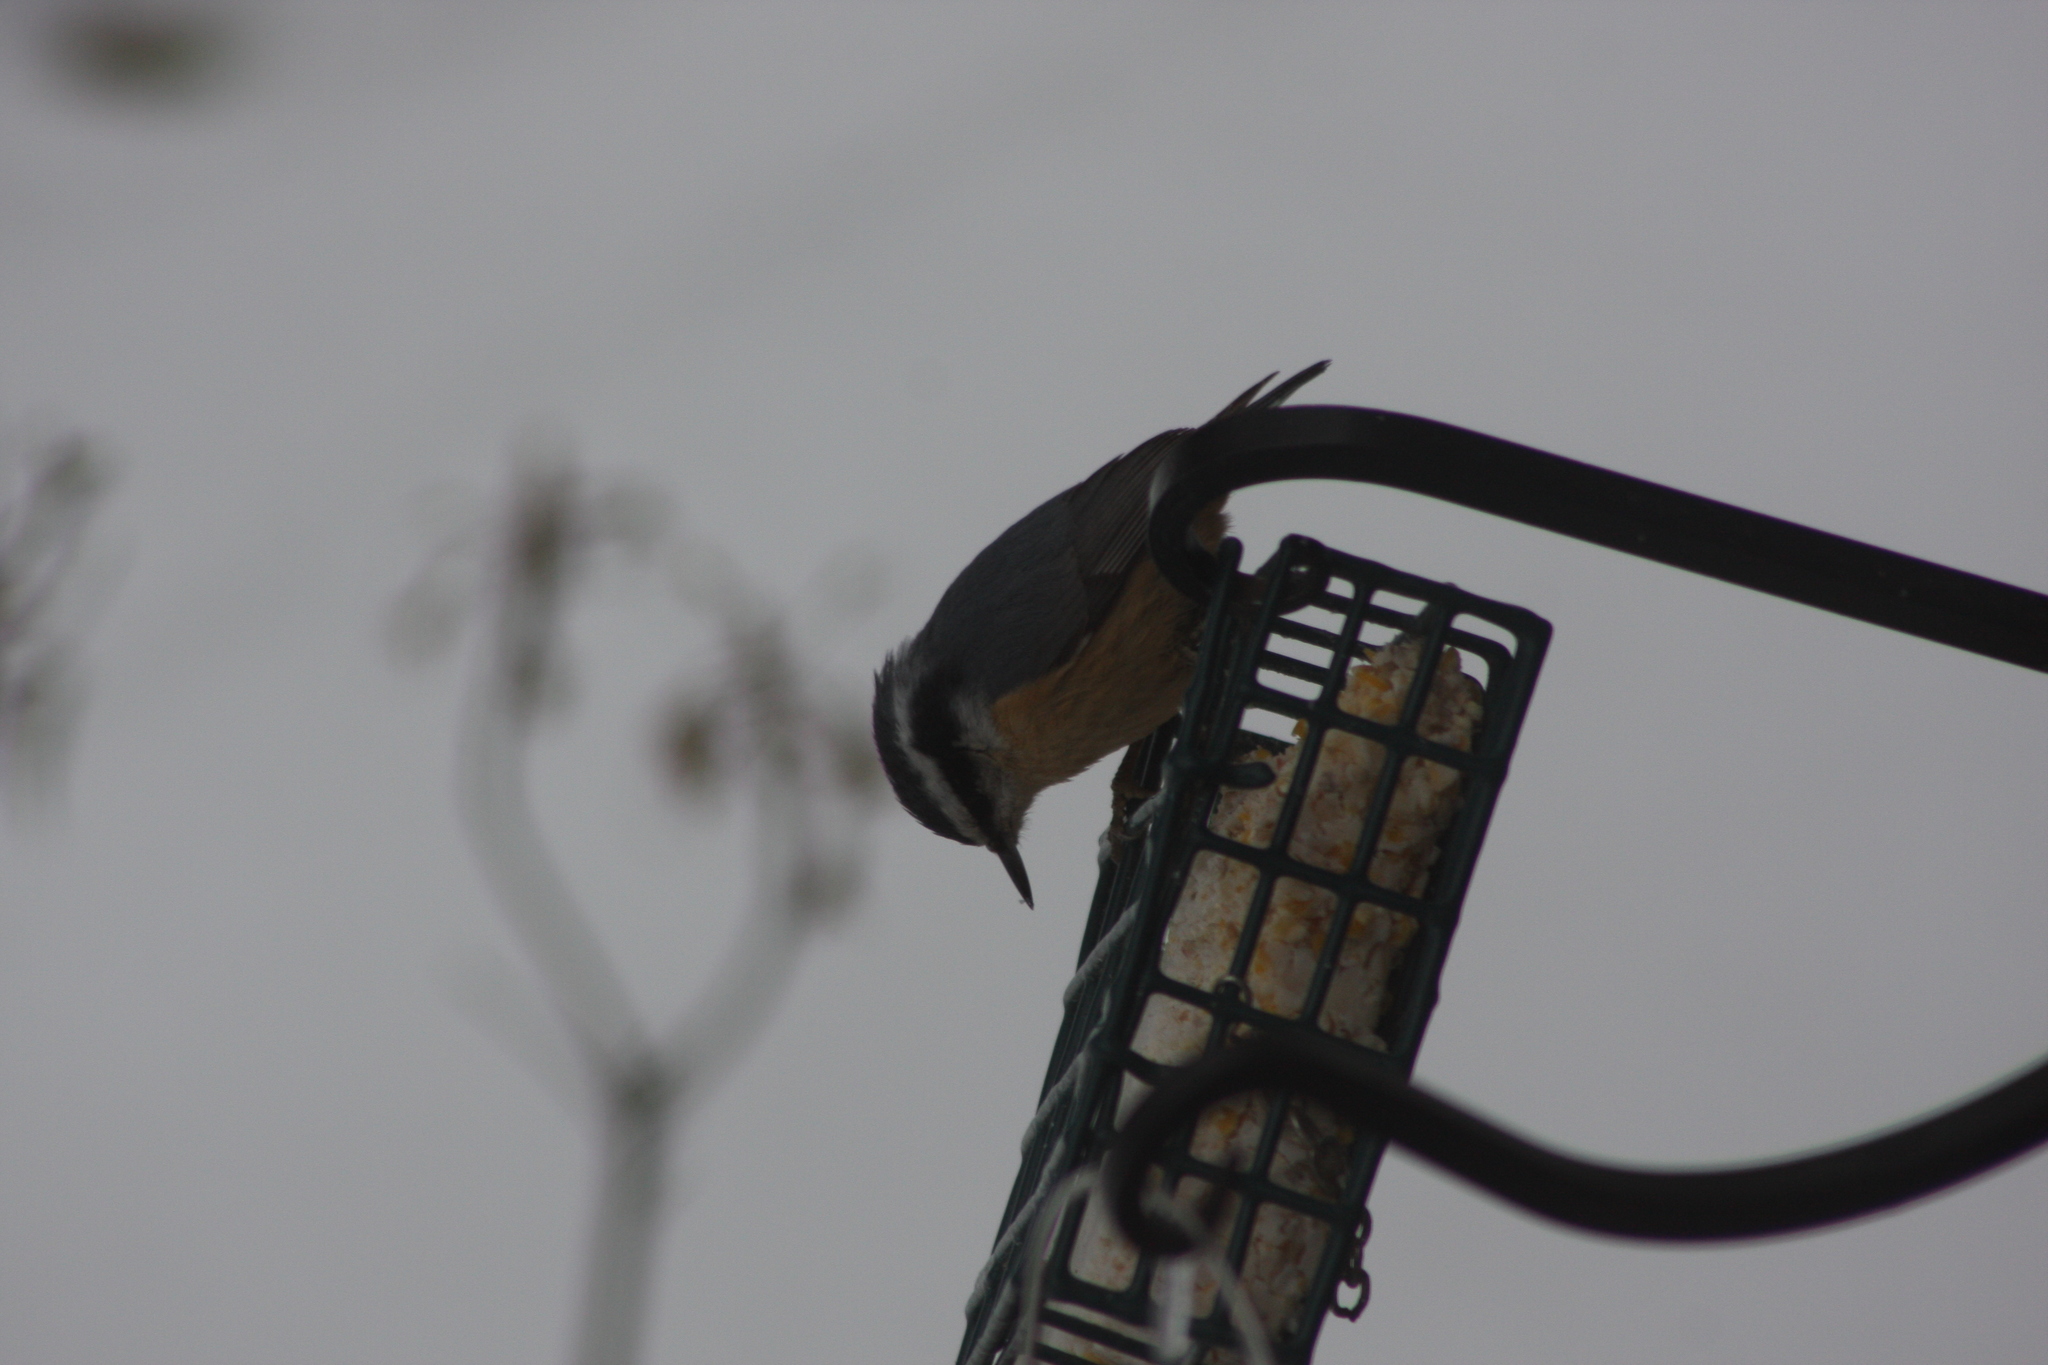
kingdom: Animalia
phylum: Chordata
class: Aves
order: Passeriformes
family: Sittidae
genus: Sitta
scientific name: Sitta canadensis
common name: Red-breasted nuthatch
